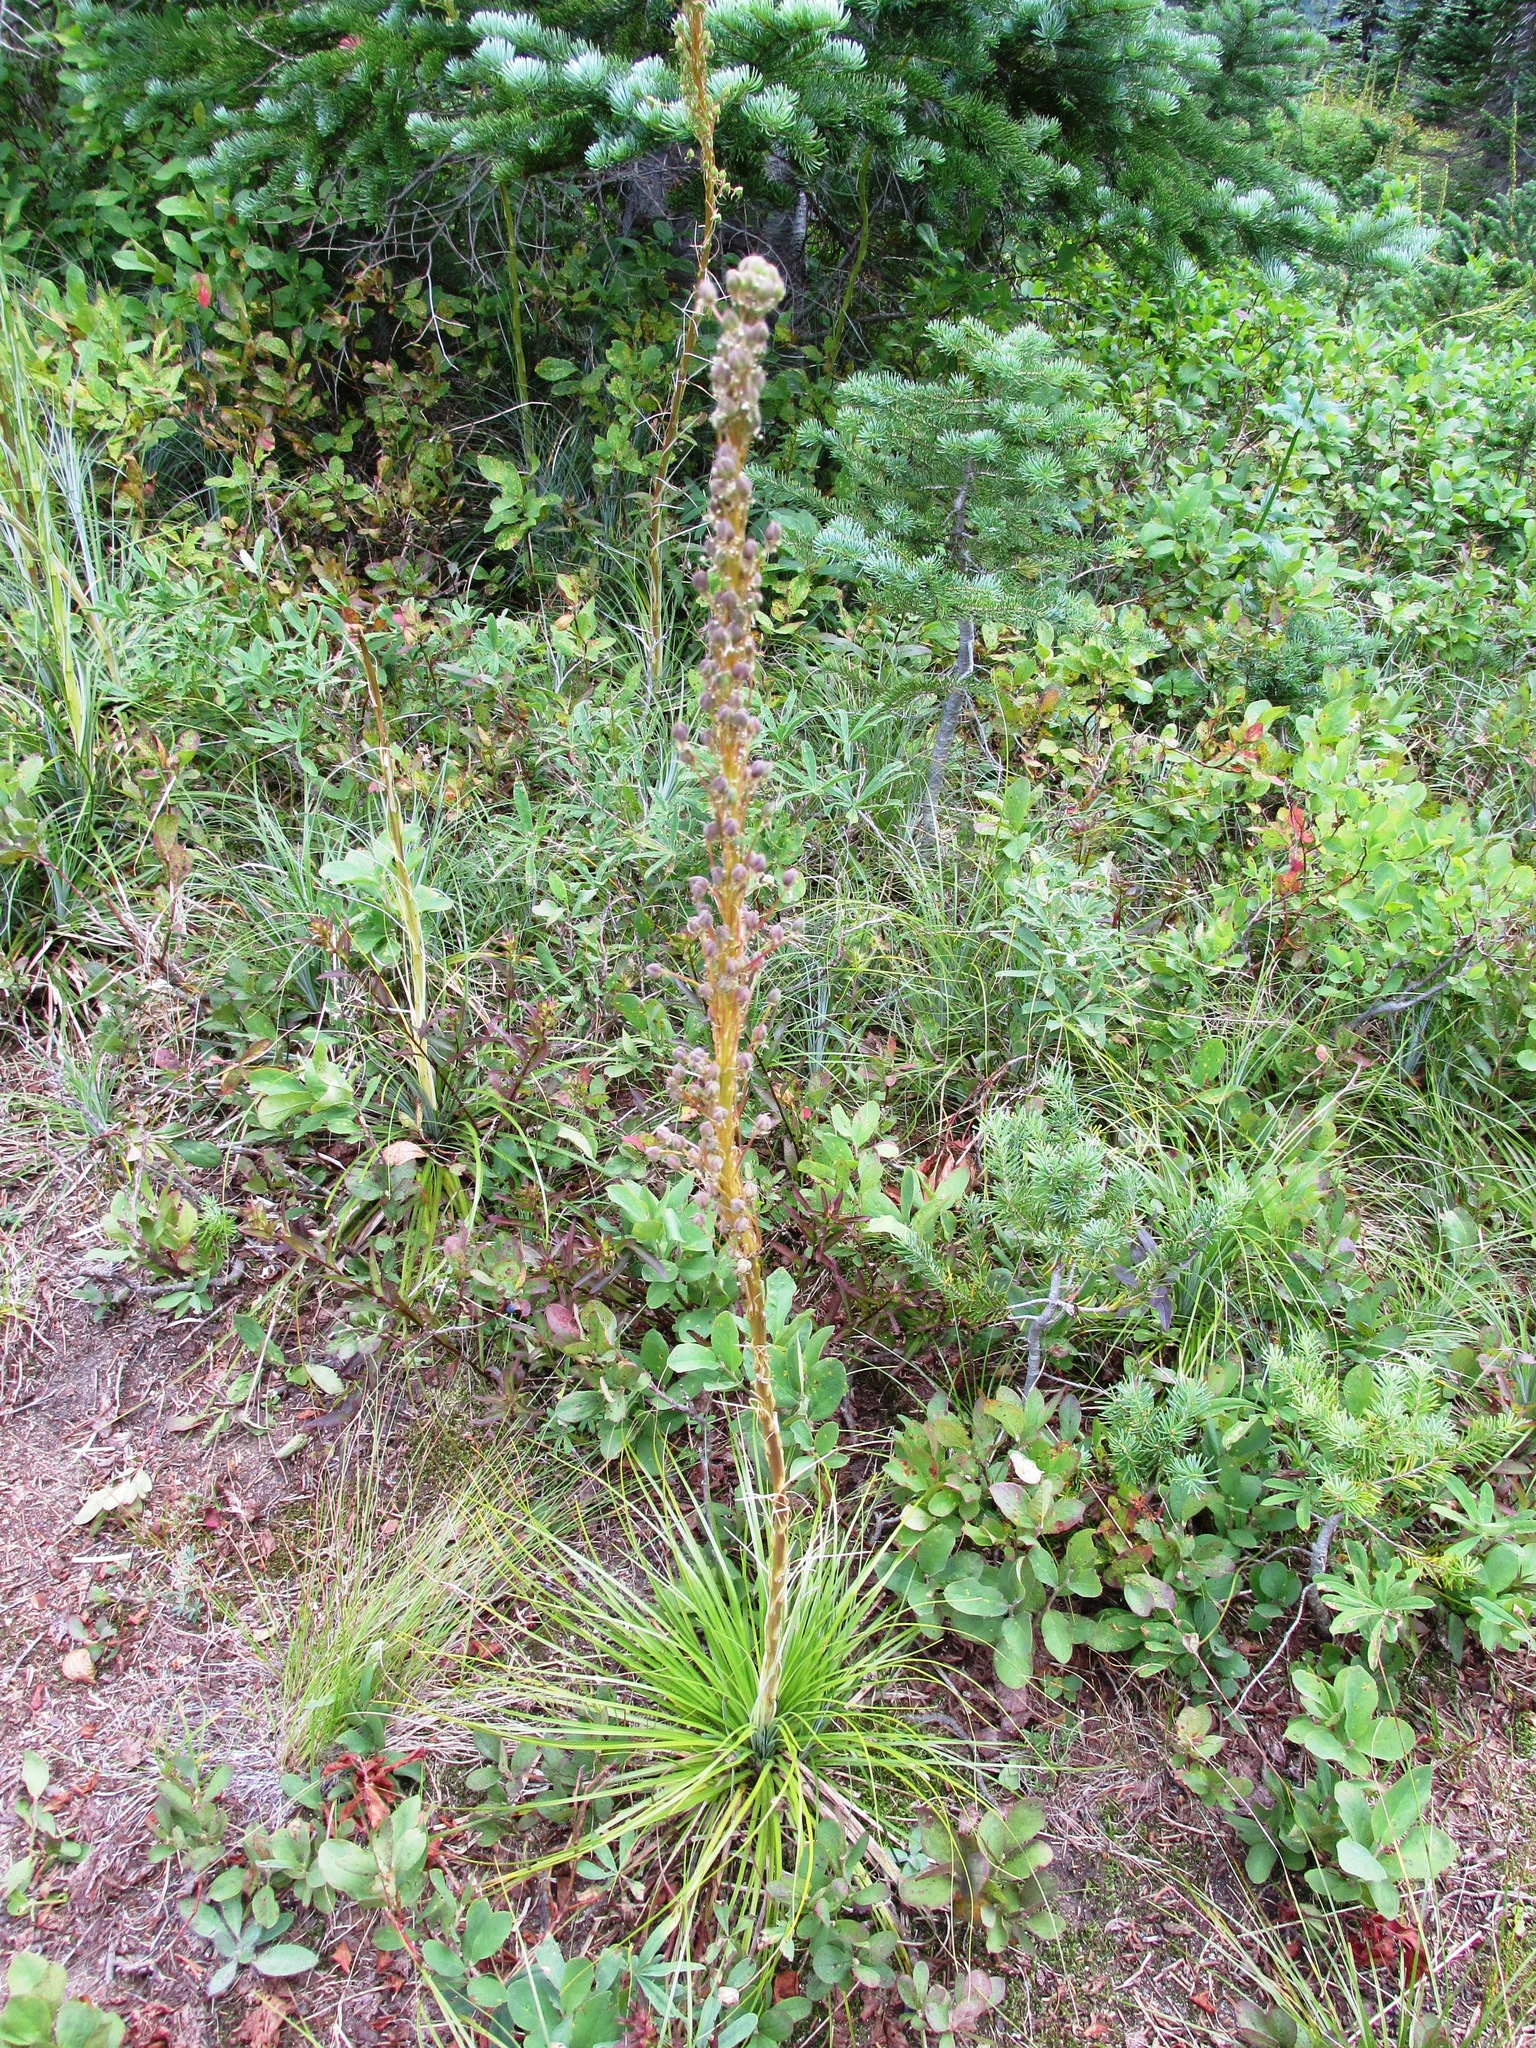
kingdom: Plantae
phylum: Tracheophyta
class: Liliopsida
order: Liliales
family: Melanthiaceae
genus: Xerophyllum
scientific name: Xerophyllum tenax
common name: Bear-grass
